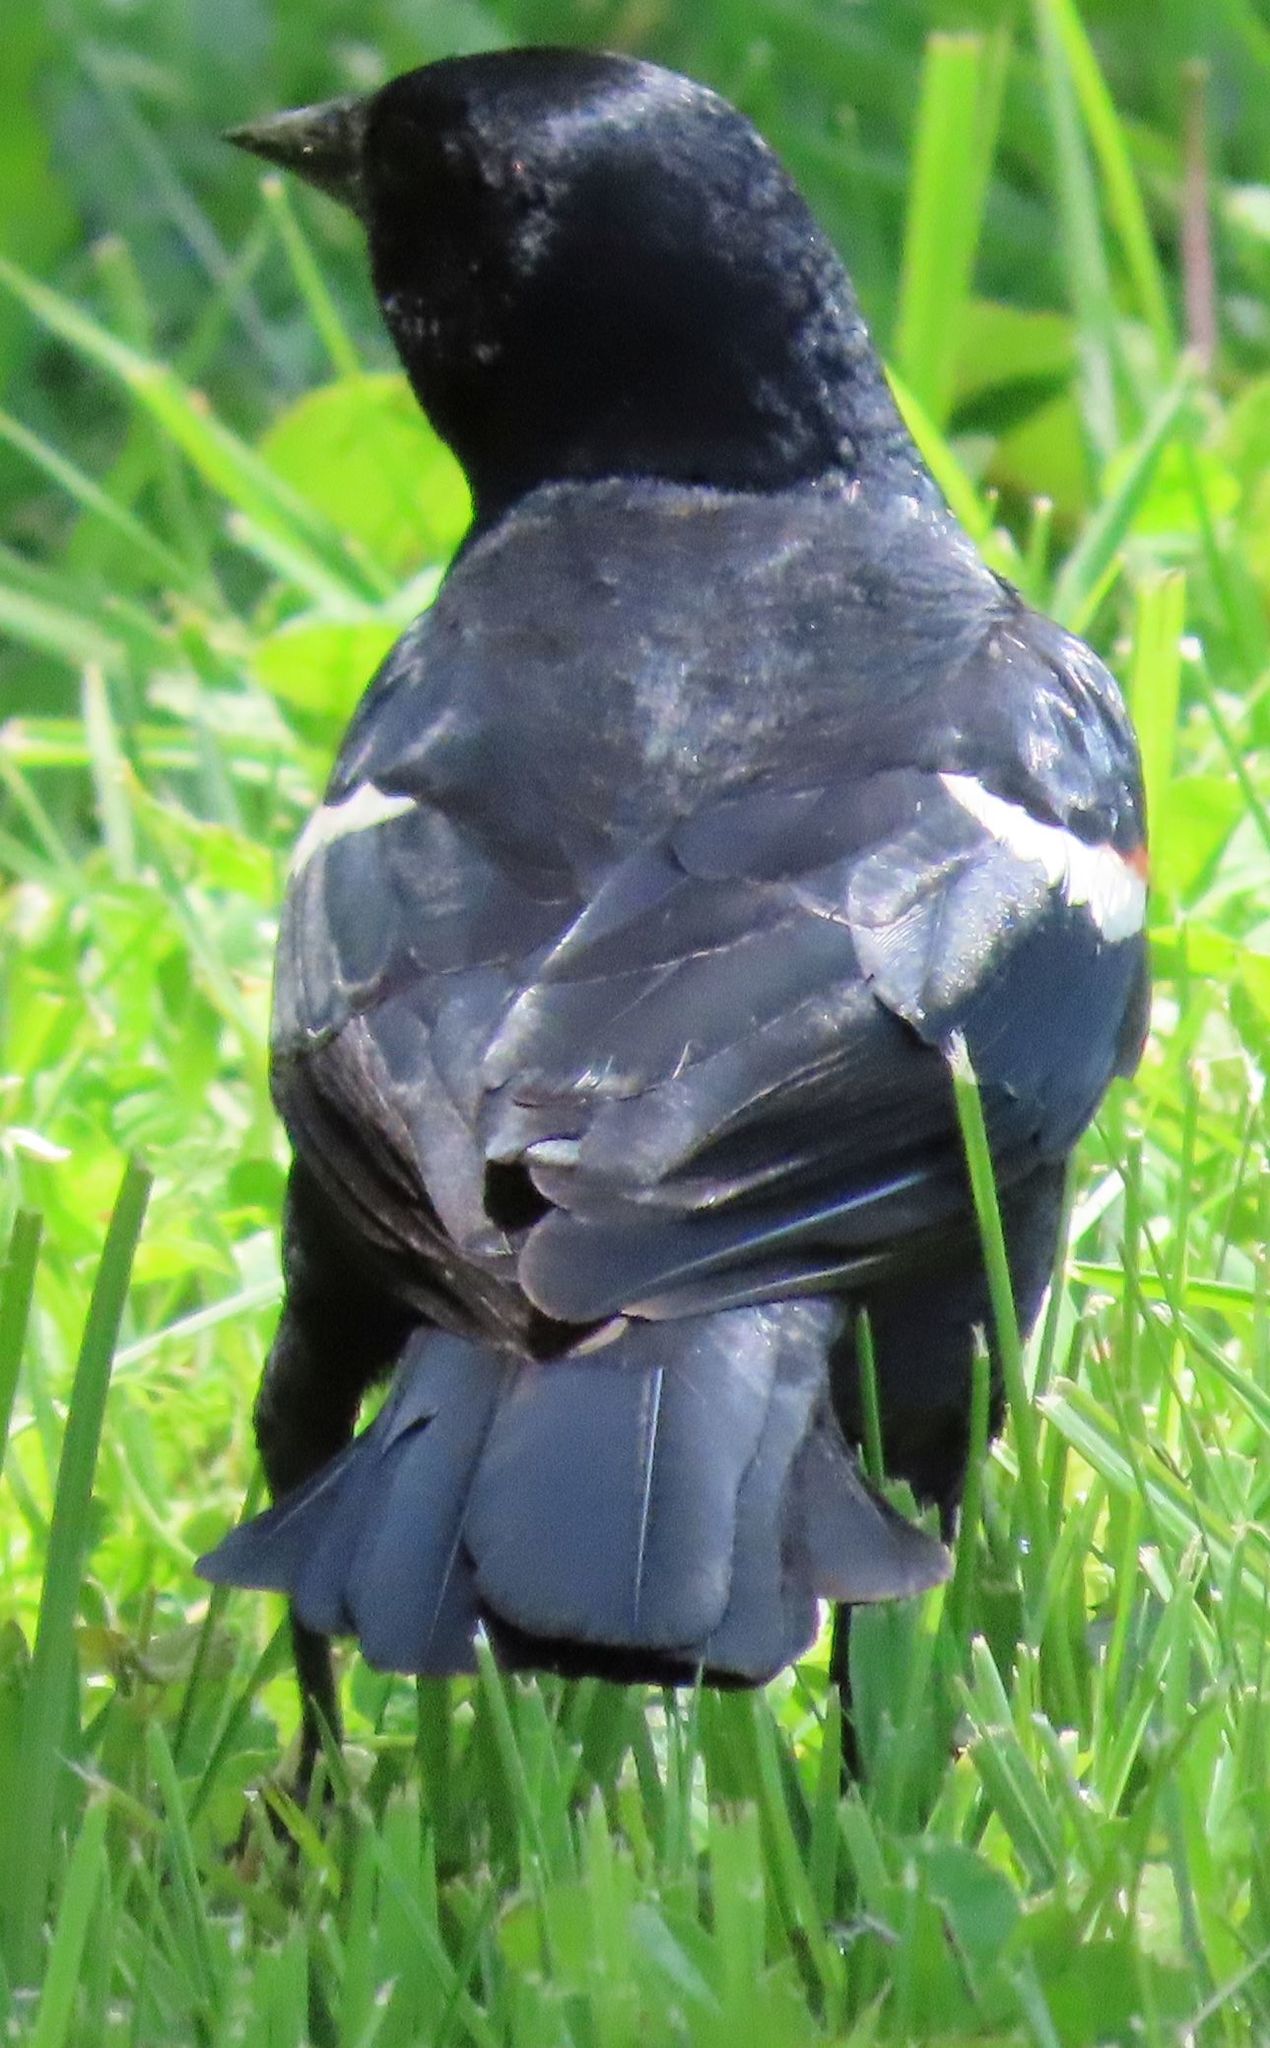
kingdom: Animalia
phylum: Chordata
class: Aves
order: Passeriformes
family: Icteridae
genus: Agelaius
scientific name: Agelaius phoeniceus
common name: Red-winged blackbird
